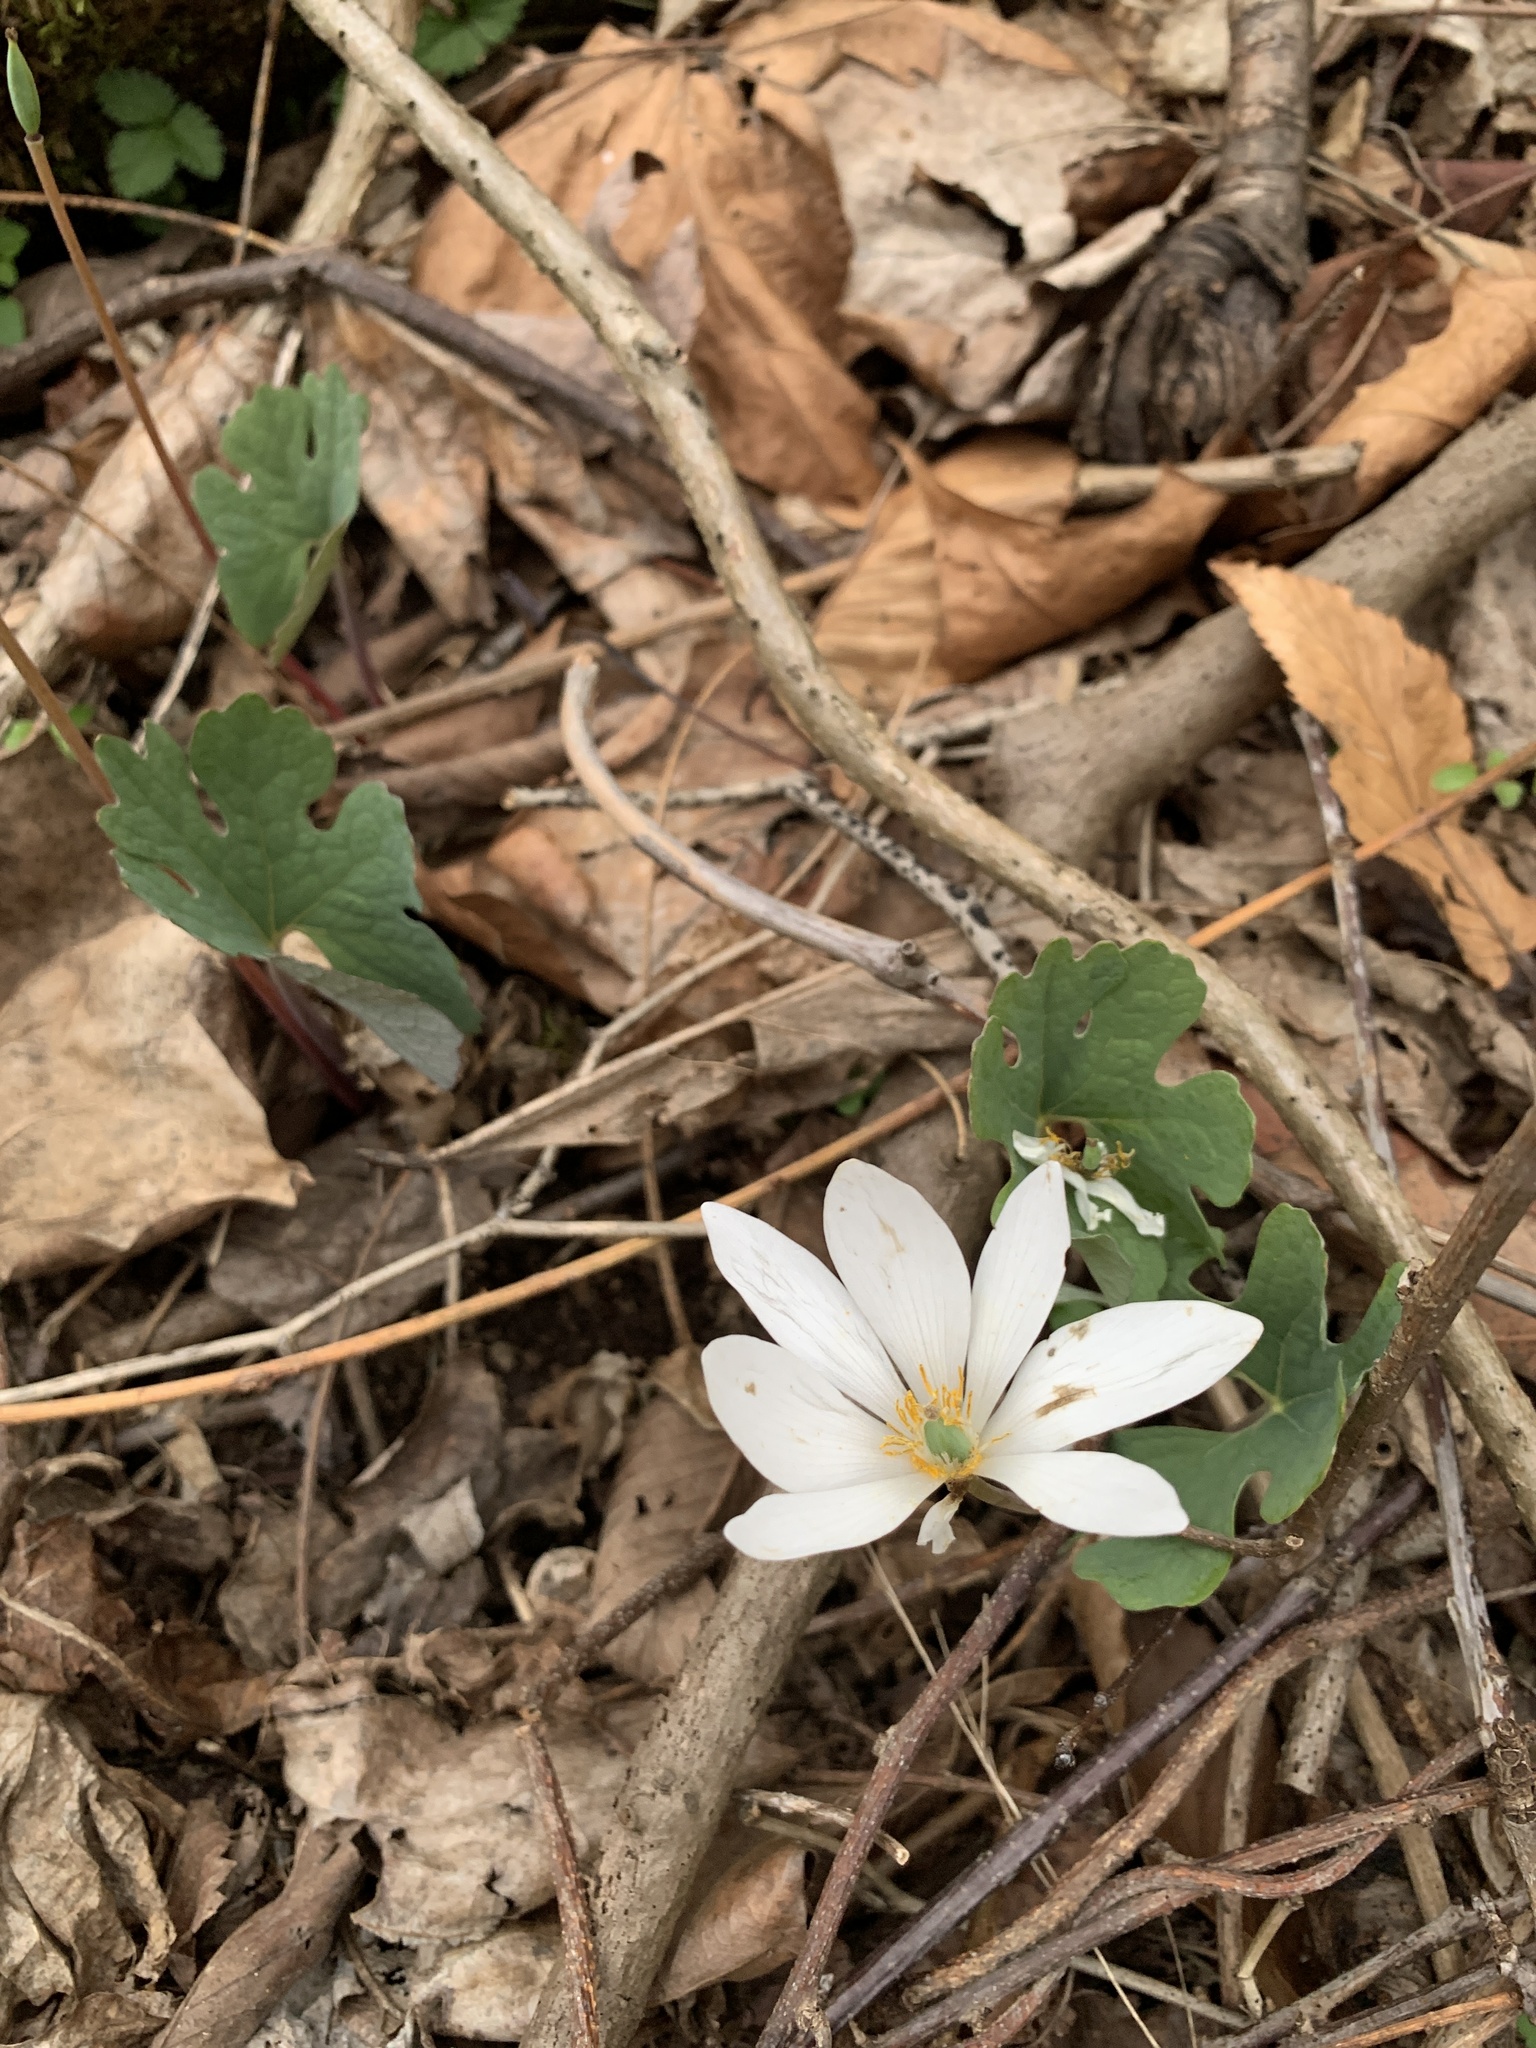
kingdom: Plantae
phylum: Tracheophyta
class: Magnoliopsida
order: Ranunculales
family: Papaveraceae
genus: Sanguinaria
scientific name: Sanguinaria canadensis
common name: Bloodroot
